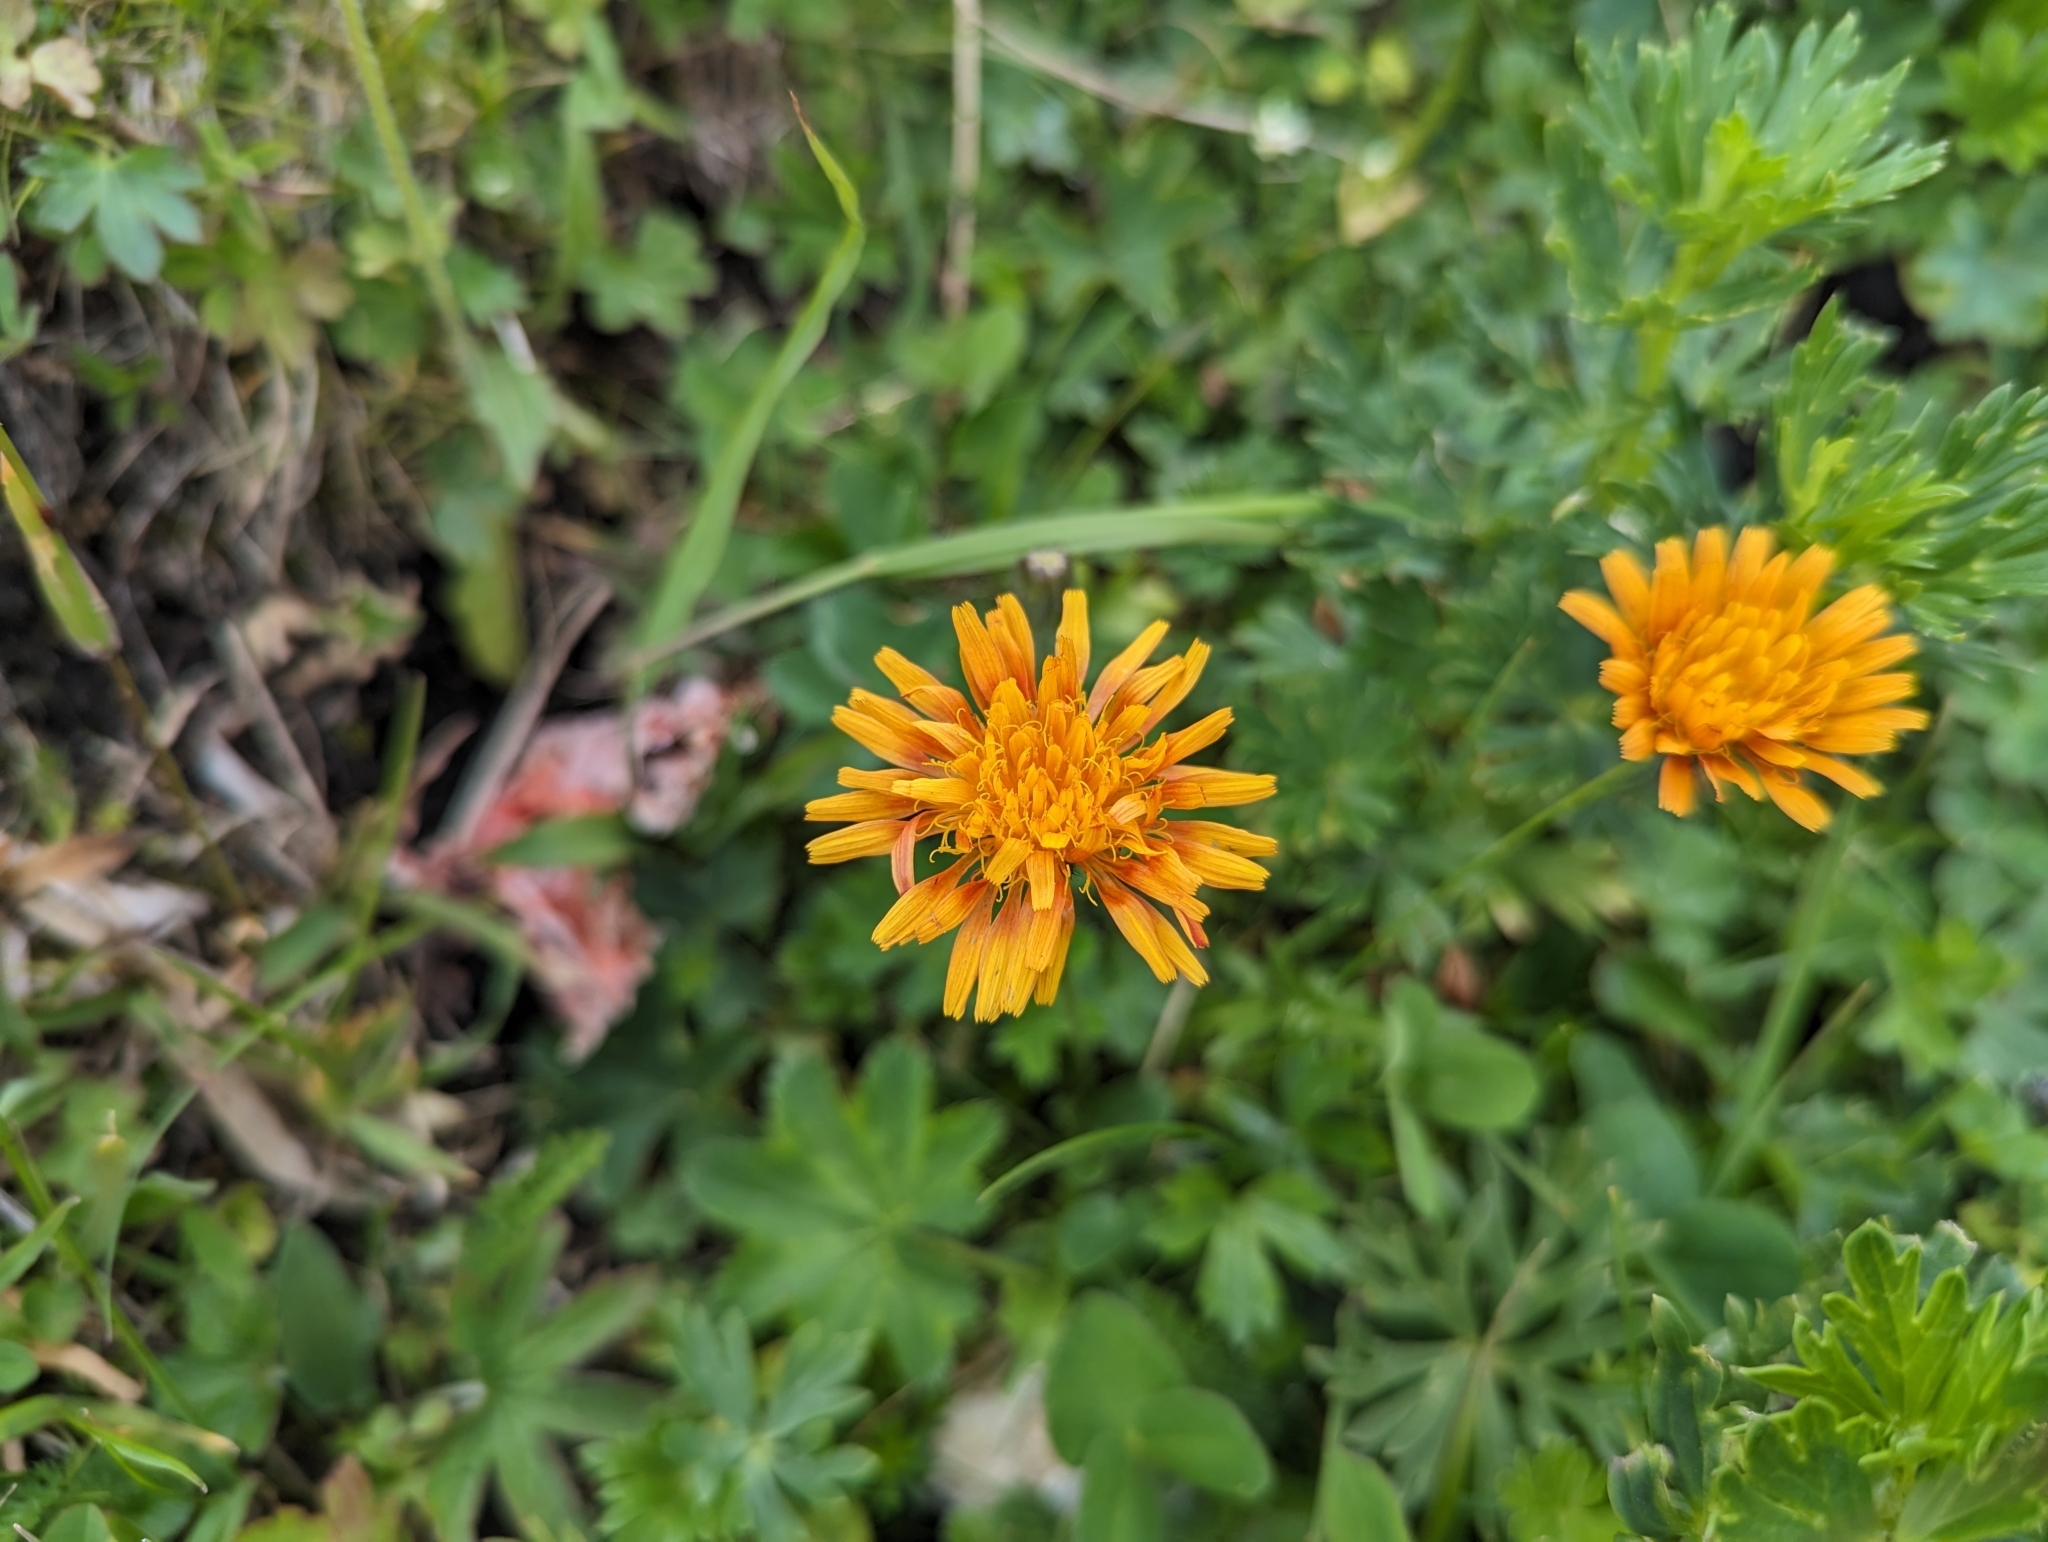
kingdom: Plantae
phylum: Tracheophyta
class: Magnoliopsida
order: Asterales
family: Asteraceae
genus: Crepis
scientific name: Crepis aurea
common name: Golden hawk's-beard
